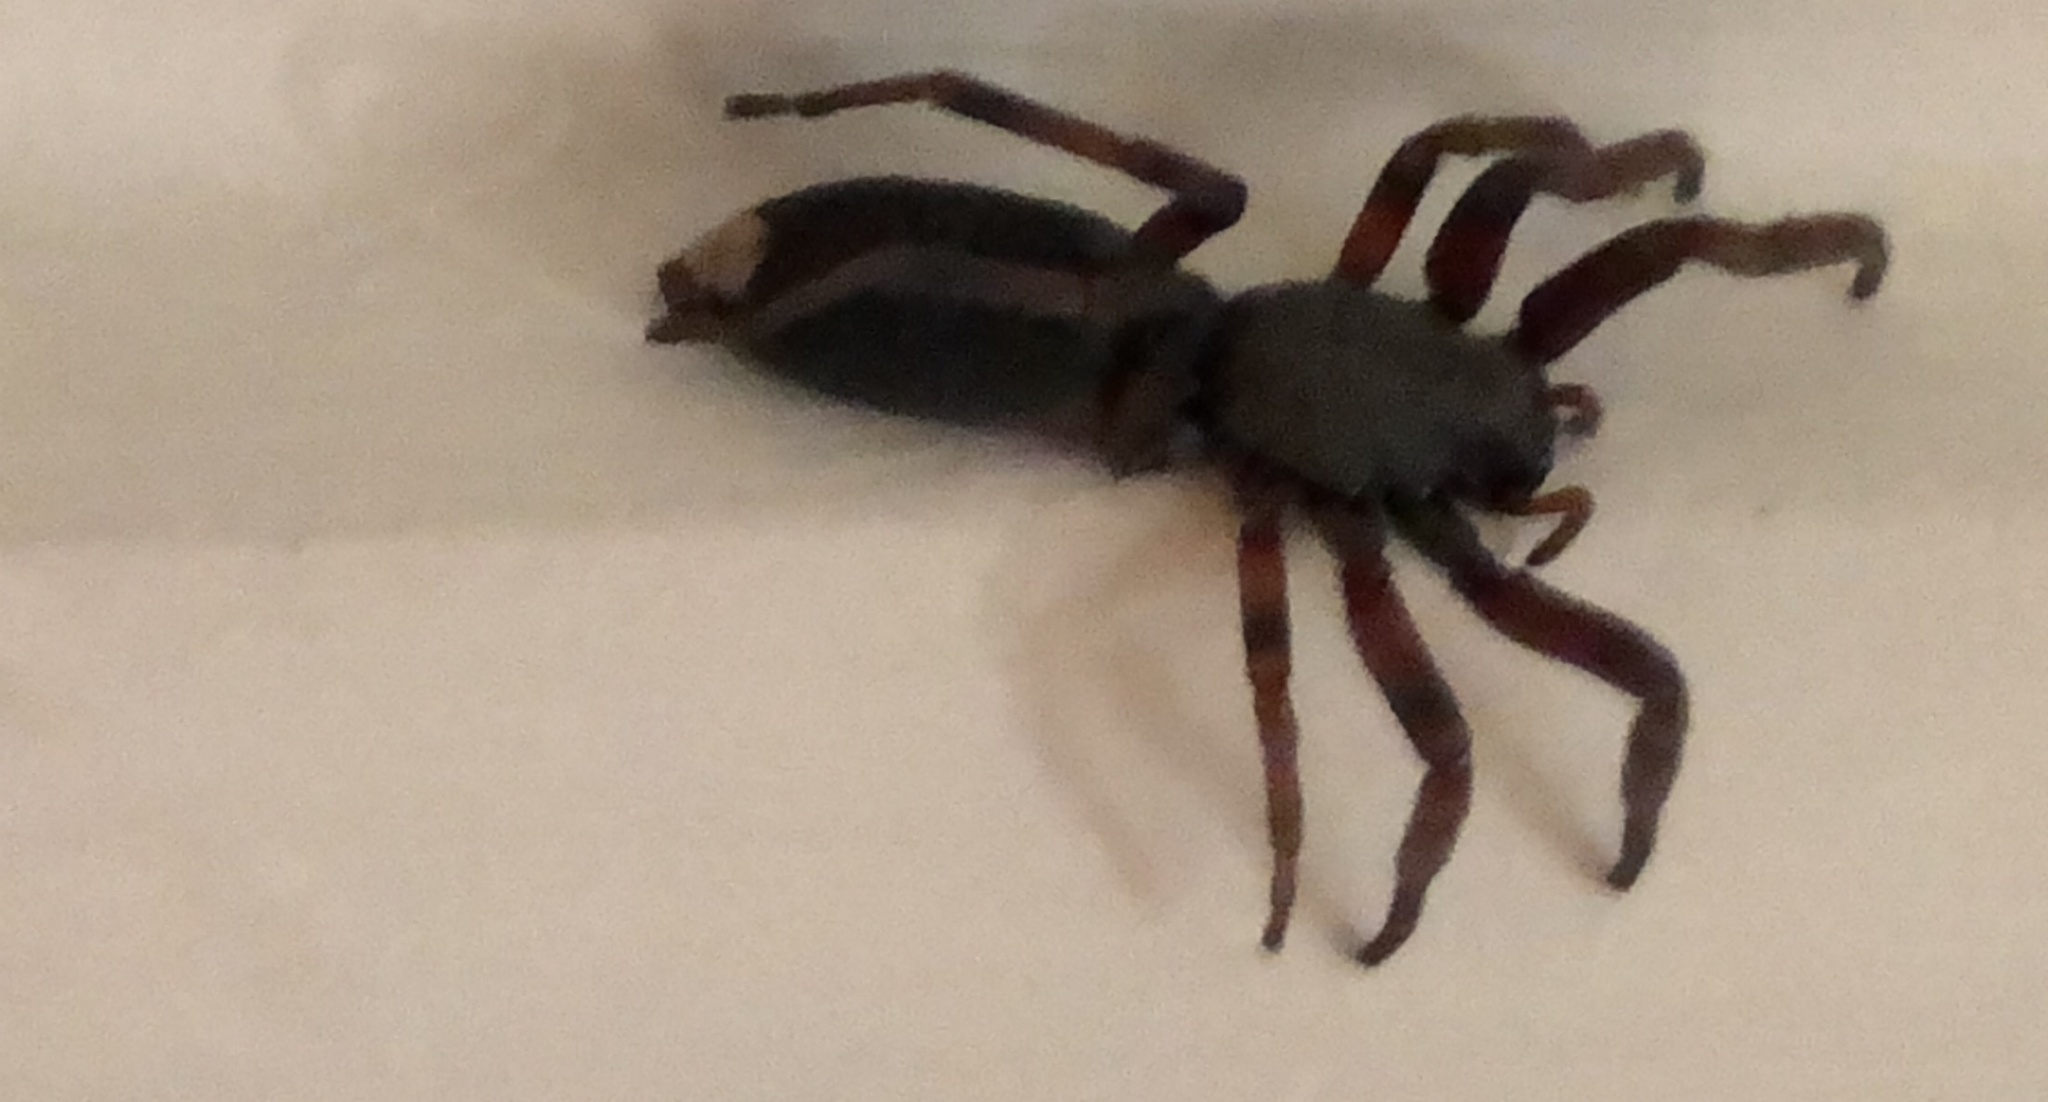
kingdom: Animalia
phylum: Arthropoda
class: Arachnida
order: Araneae
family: Lamponidae
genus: Lampona
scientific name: Lampona murina
